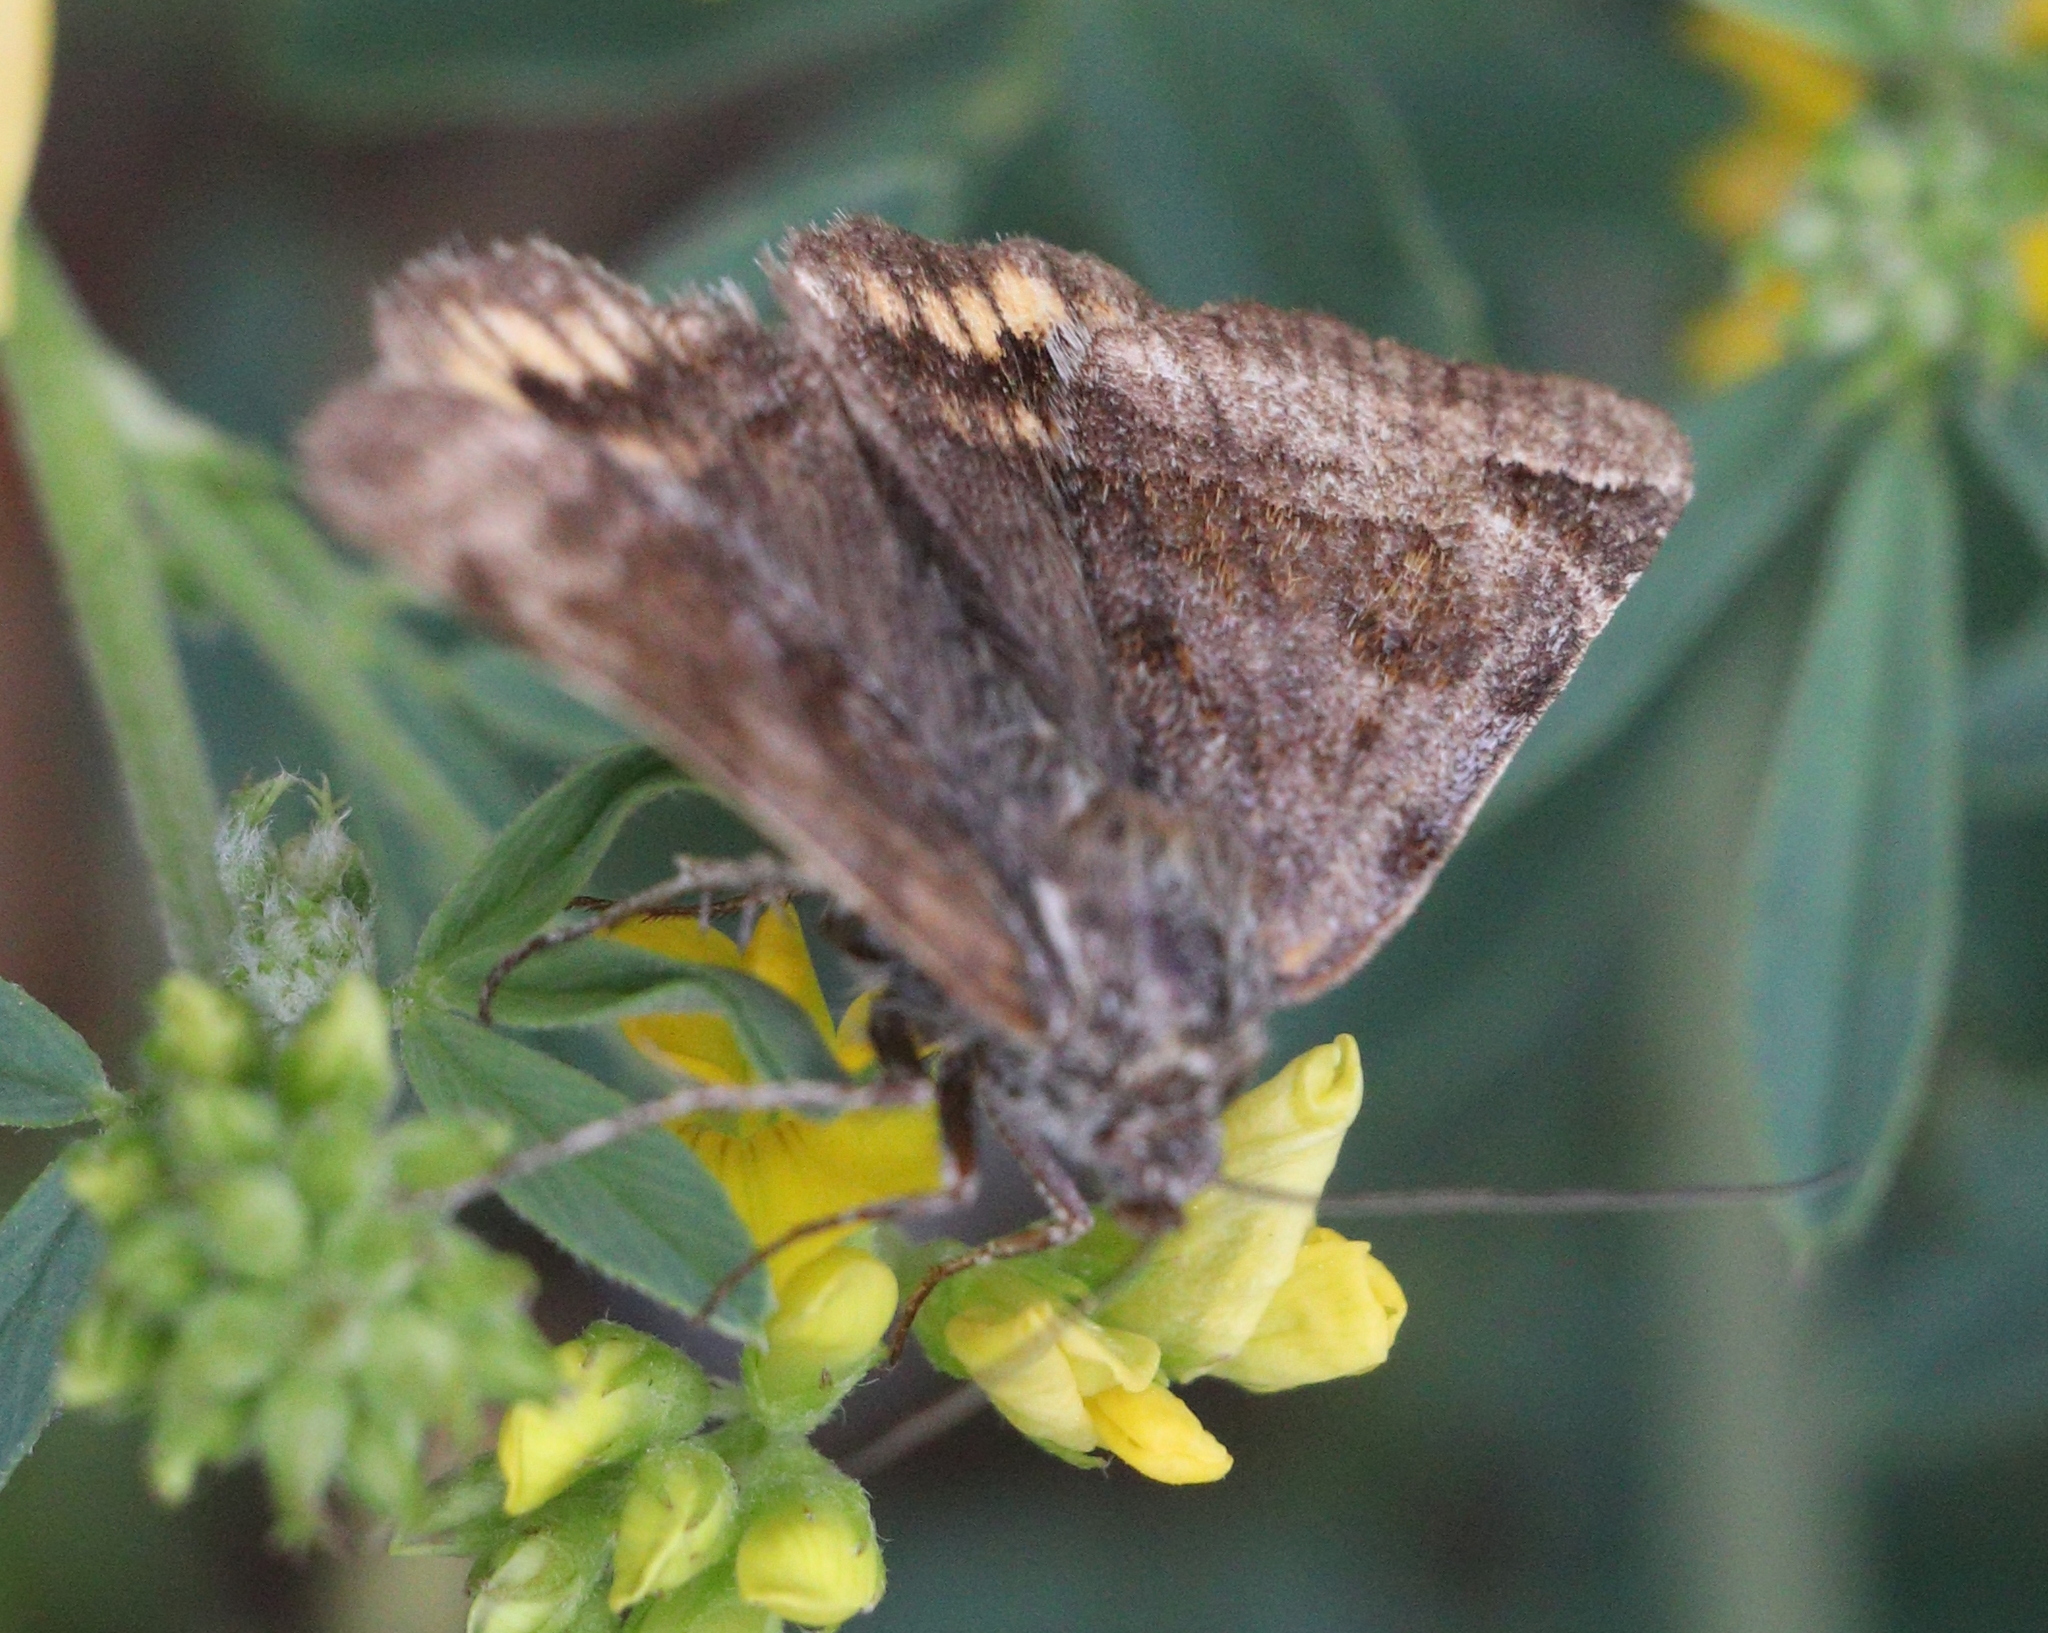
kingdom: Animalia
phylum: Arthropoda
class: Insecta
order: Lepidoptera
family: Erebidae
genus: Euclidia
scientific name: Euclidia glyphica
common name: Burnet companion
